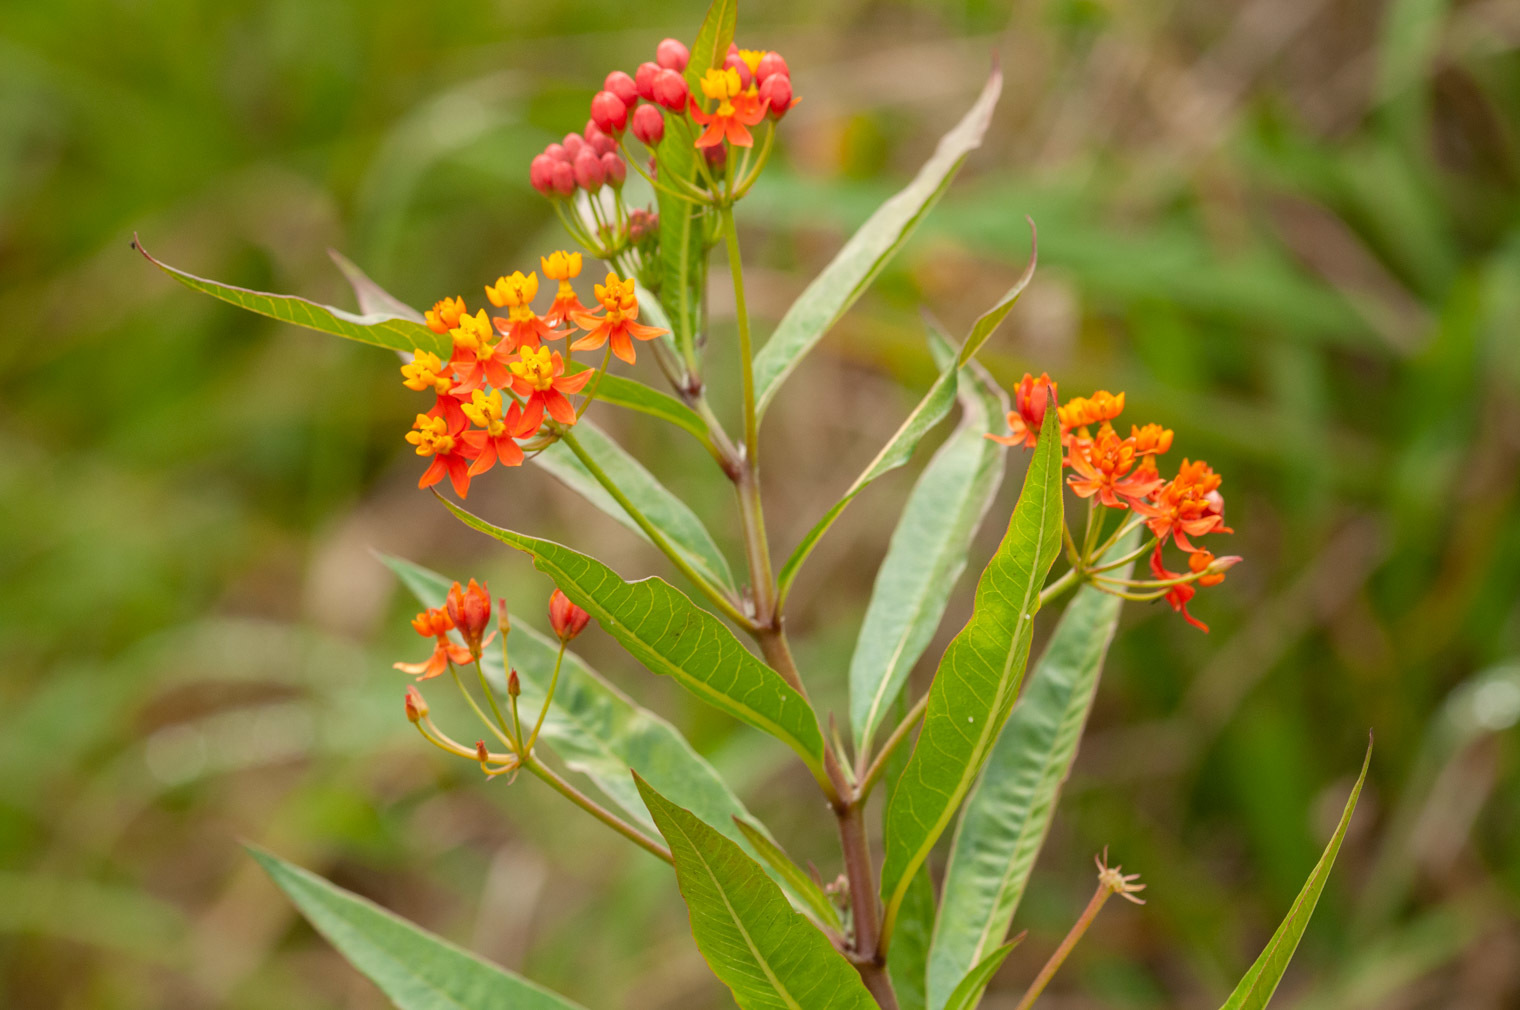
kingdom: Plantae
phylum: Tracheophyta
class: Magnoliopsida
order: Gentianales
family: Apocynaceae
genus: Asclepias
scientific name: Asclepias curassavica
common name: Bloodflower
